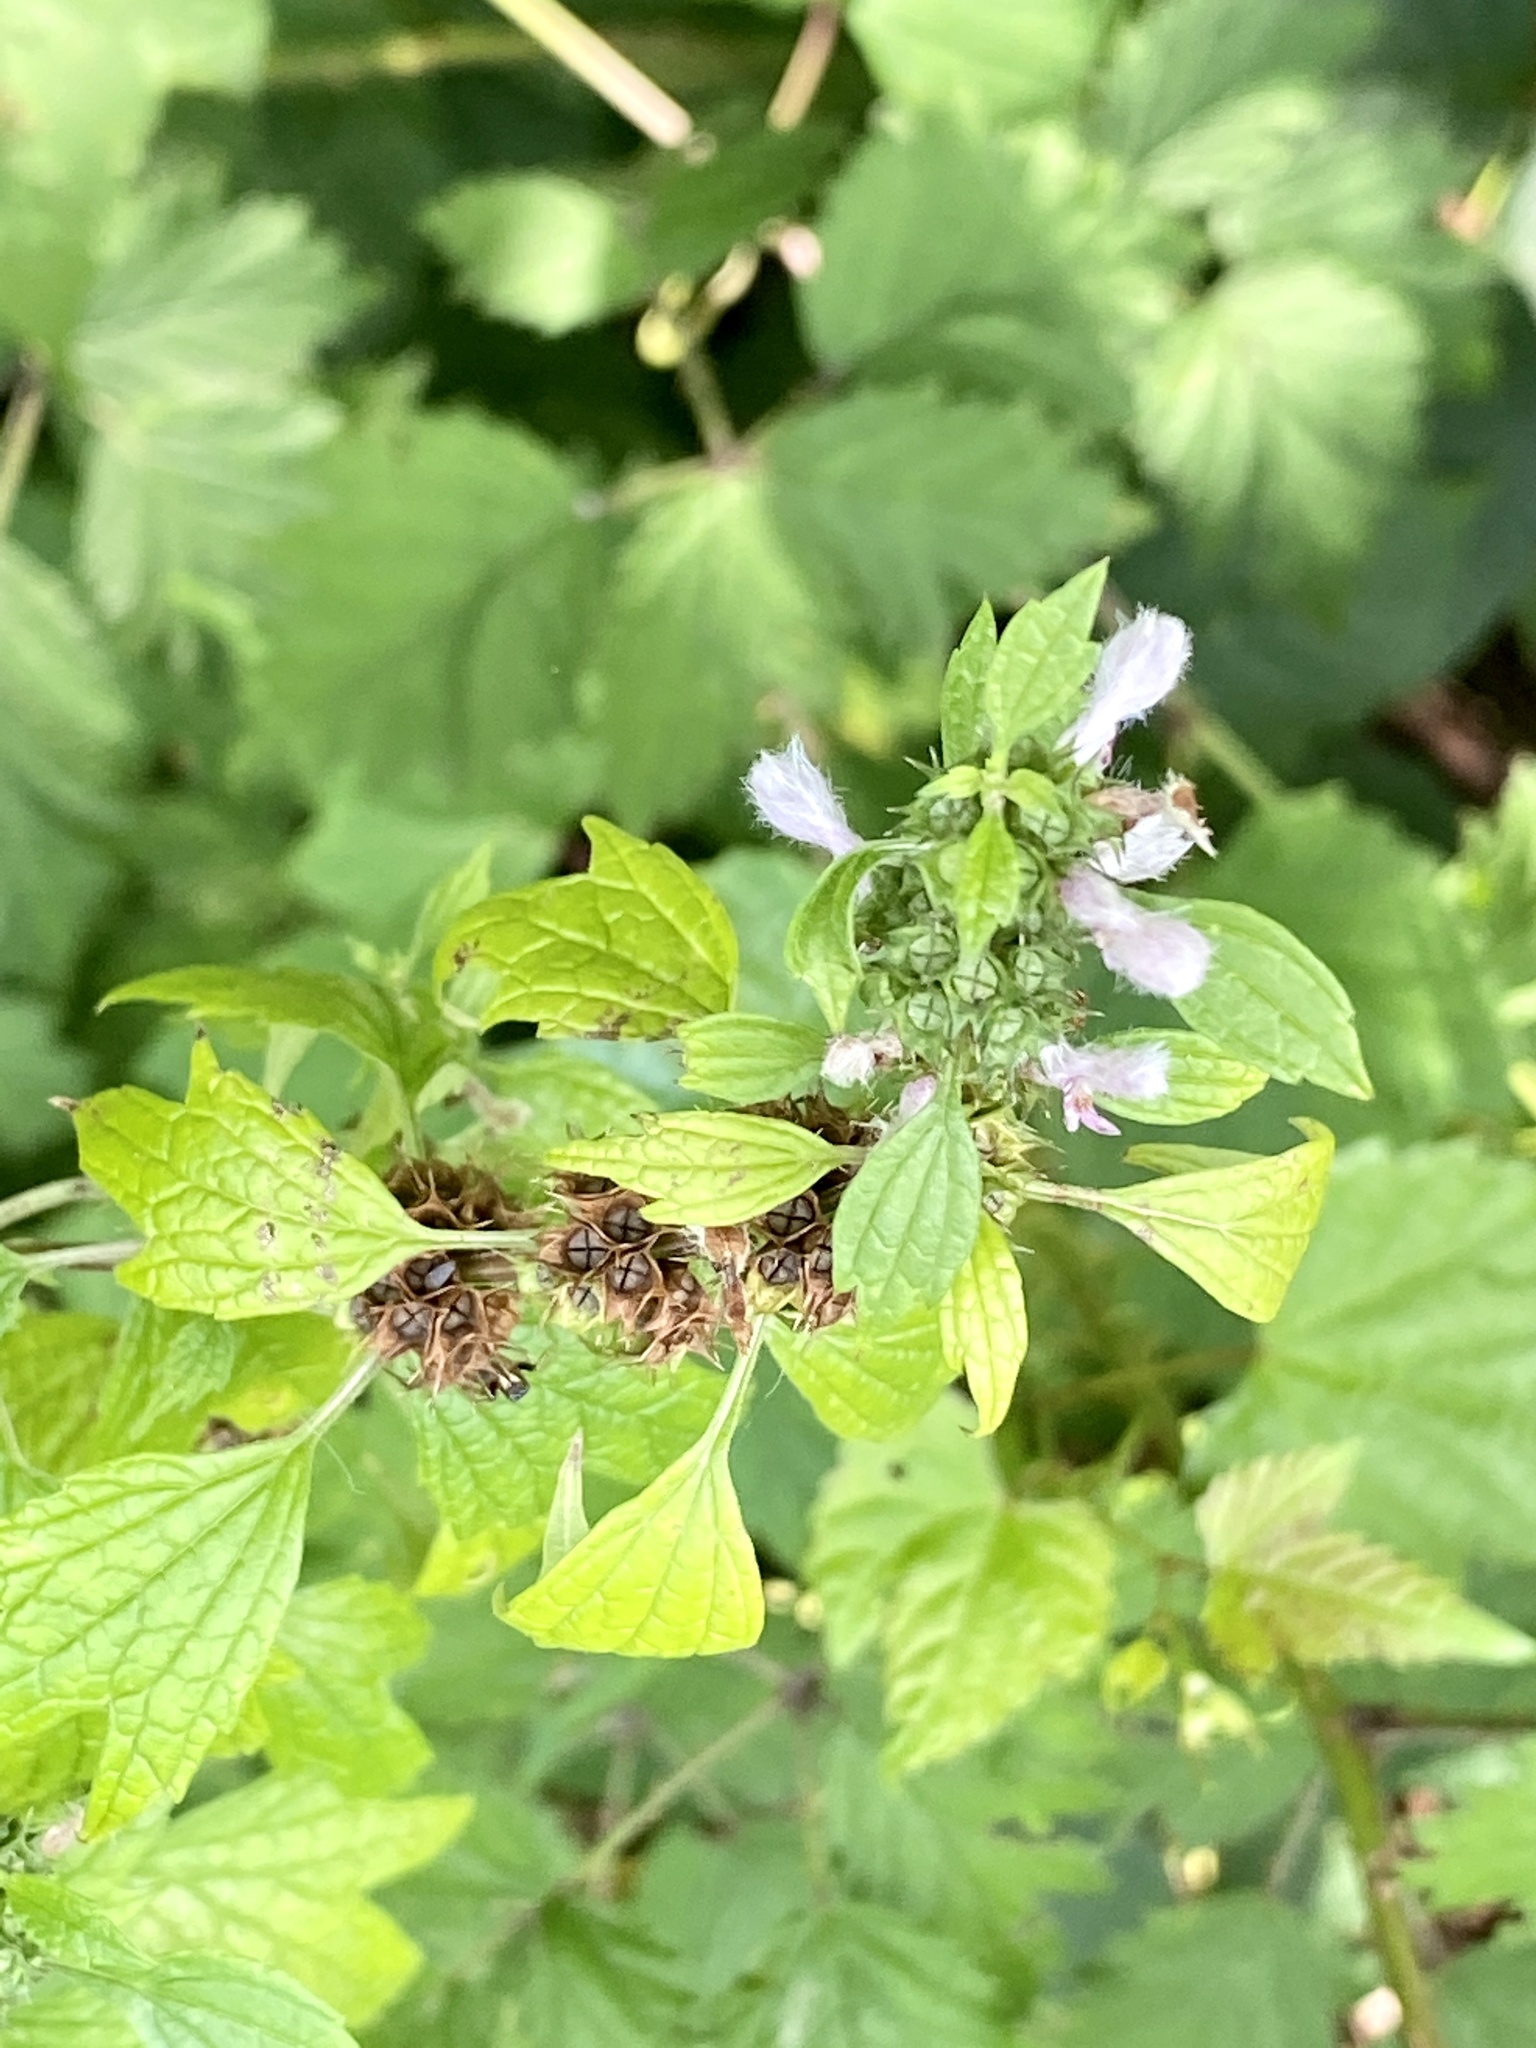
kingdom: Plantae
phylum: Tracheophyta
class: Magnoliopsida
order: Lamiales
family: Lamiaceae
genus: Leonurus
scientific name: Leonurus cardiaca
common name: Motherwort
